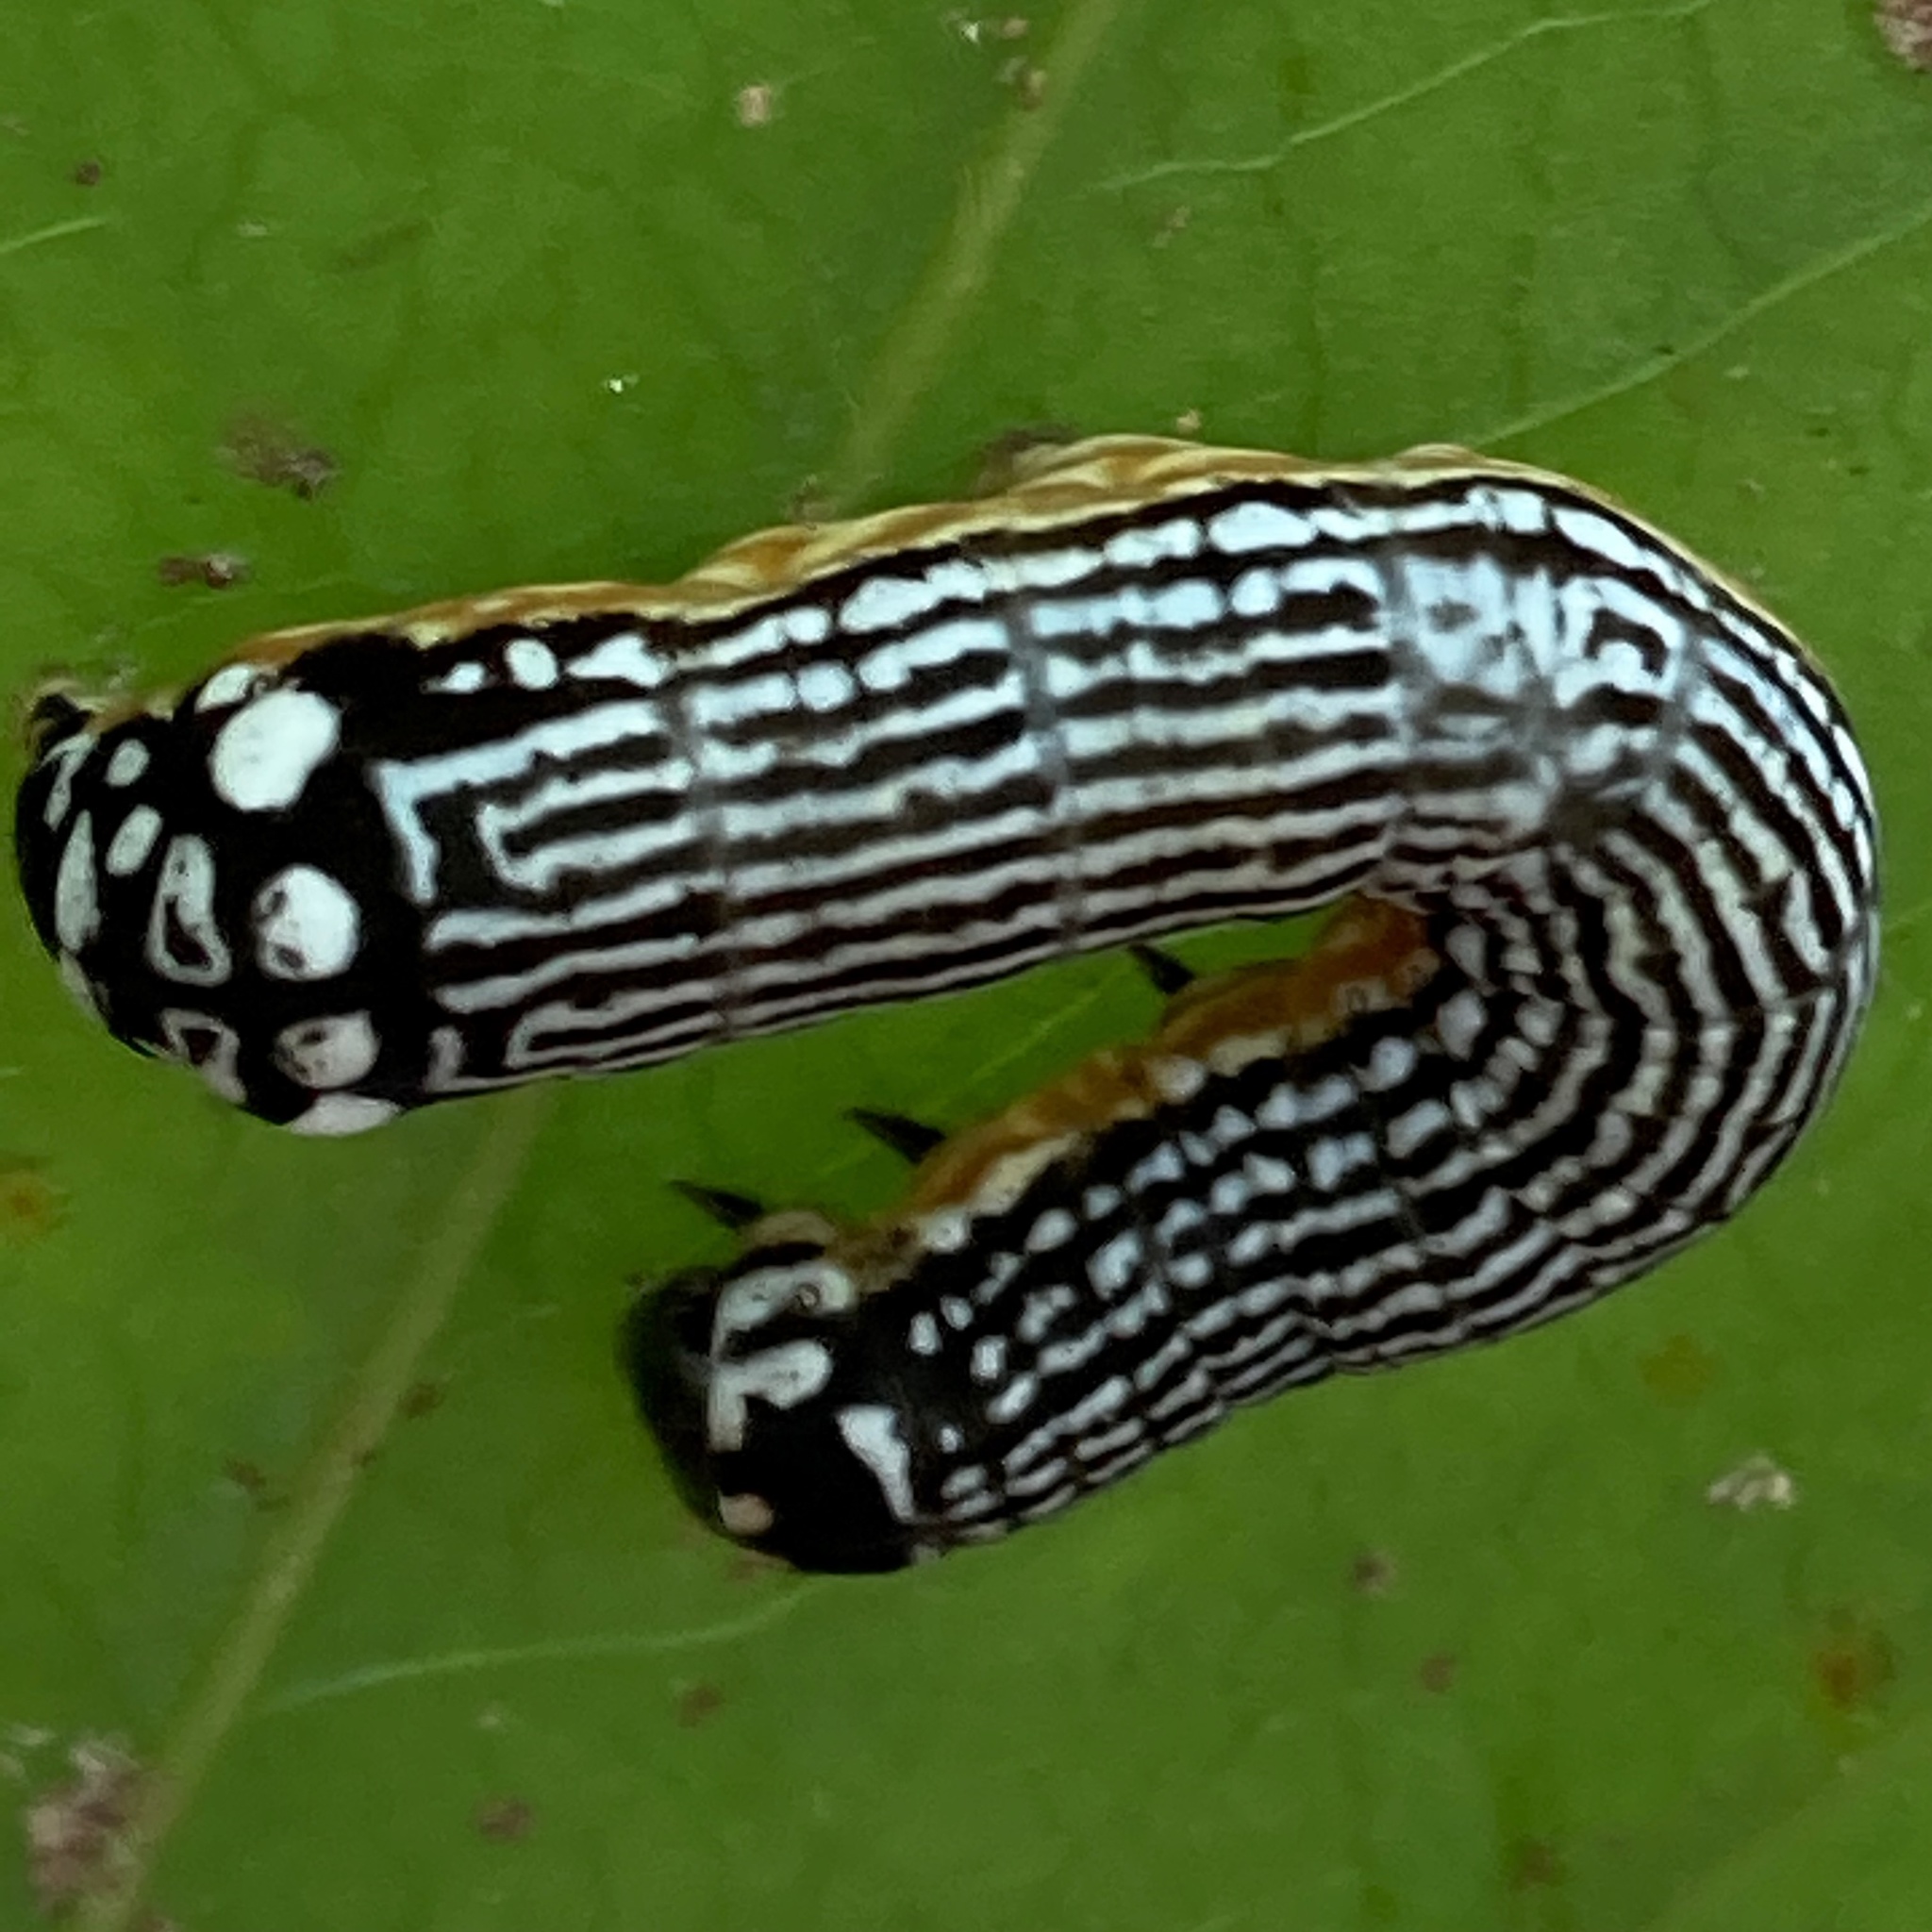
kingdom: Animalia
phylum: Arthropoda
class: Insecta
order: Lepidoptera
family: Noctuidae
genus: Phosphila
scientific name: Phosphila turbulenta
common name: Turbulent phosphila moth
